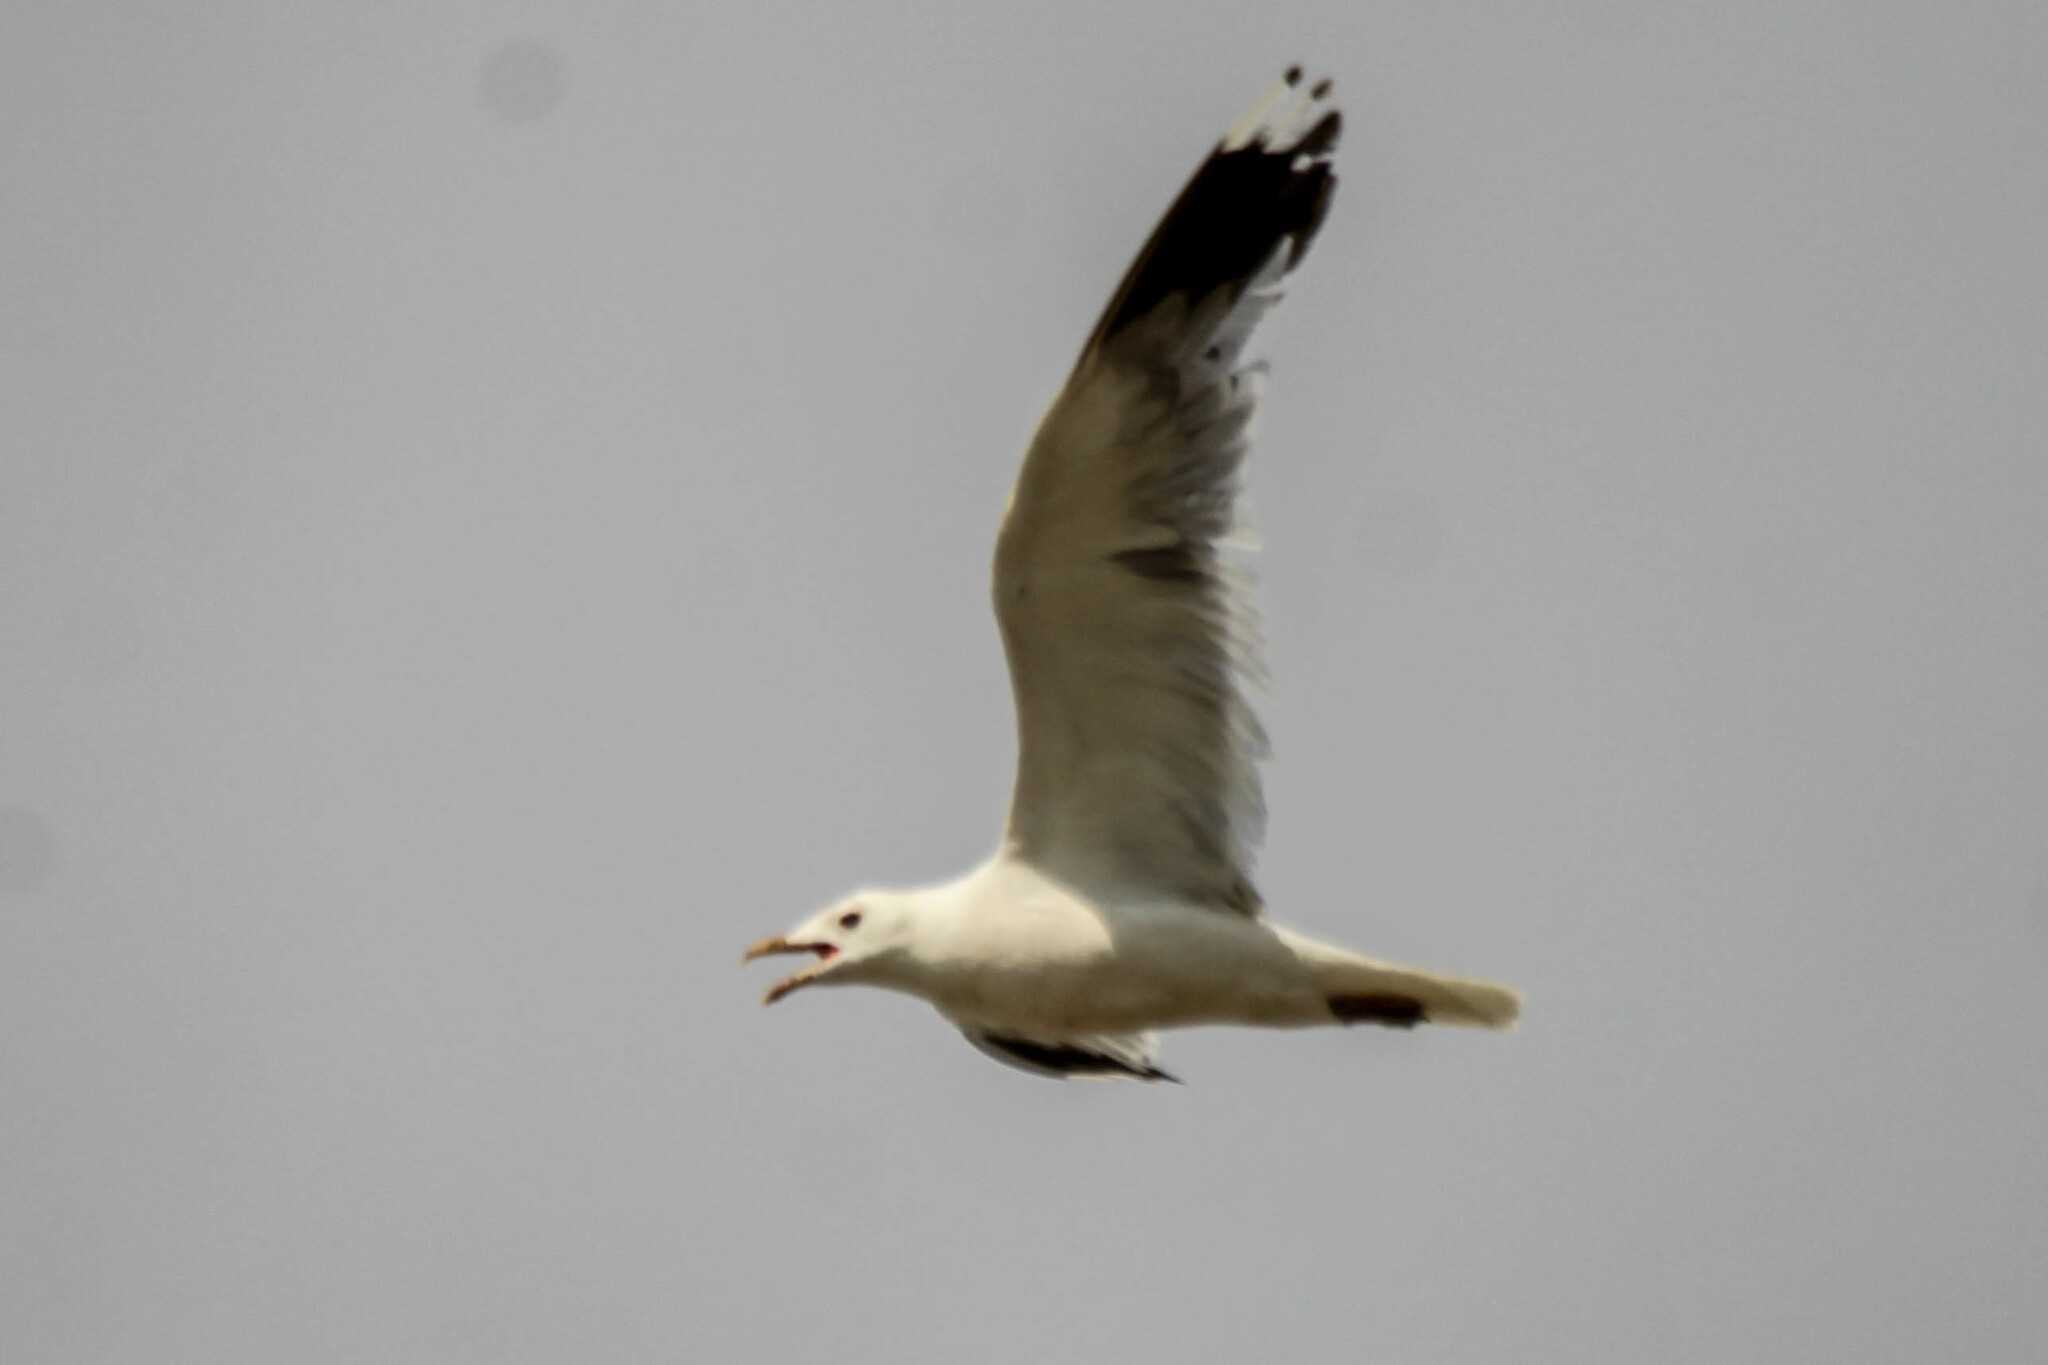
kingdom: Animalia
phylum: Chordata
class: Aves
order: Charadriiformes
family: Laridae
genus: Larus
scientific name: Larus canus
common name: Mew gull
